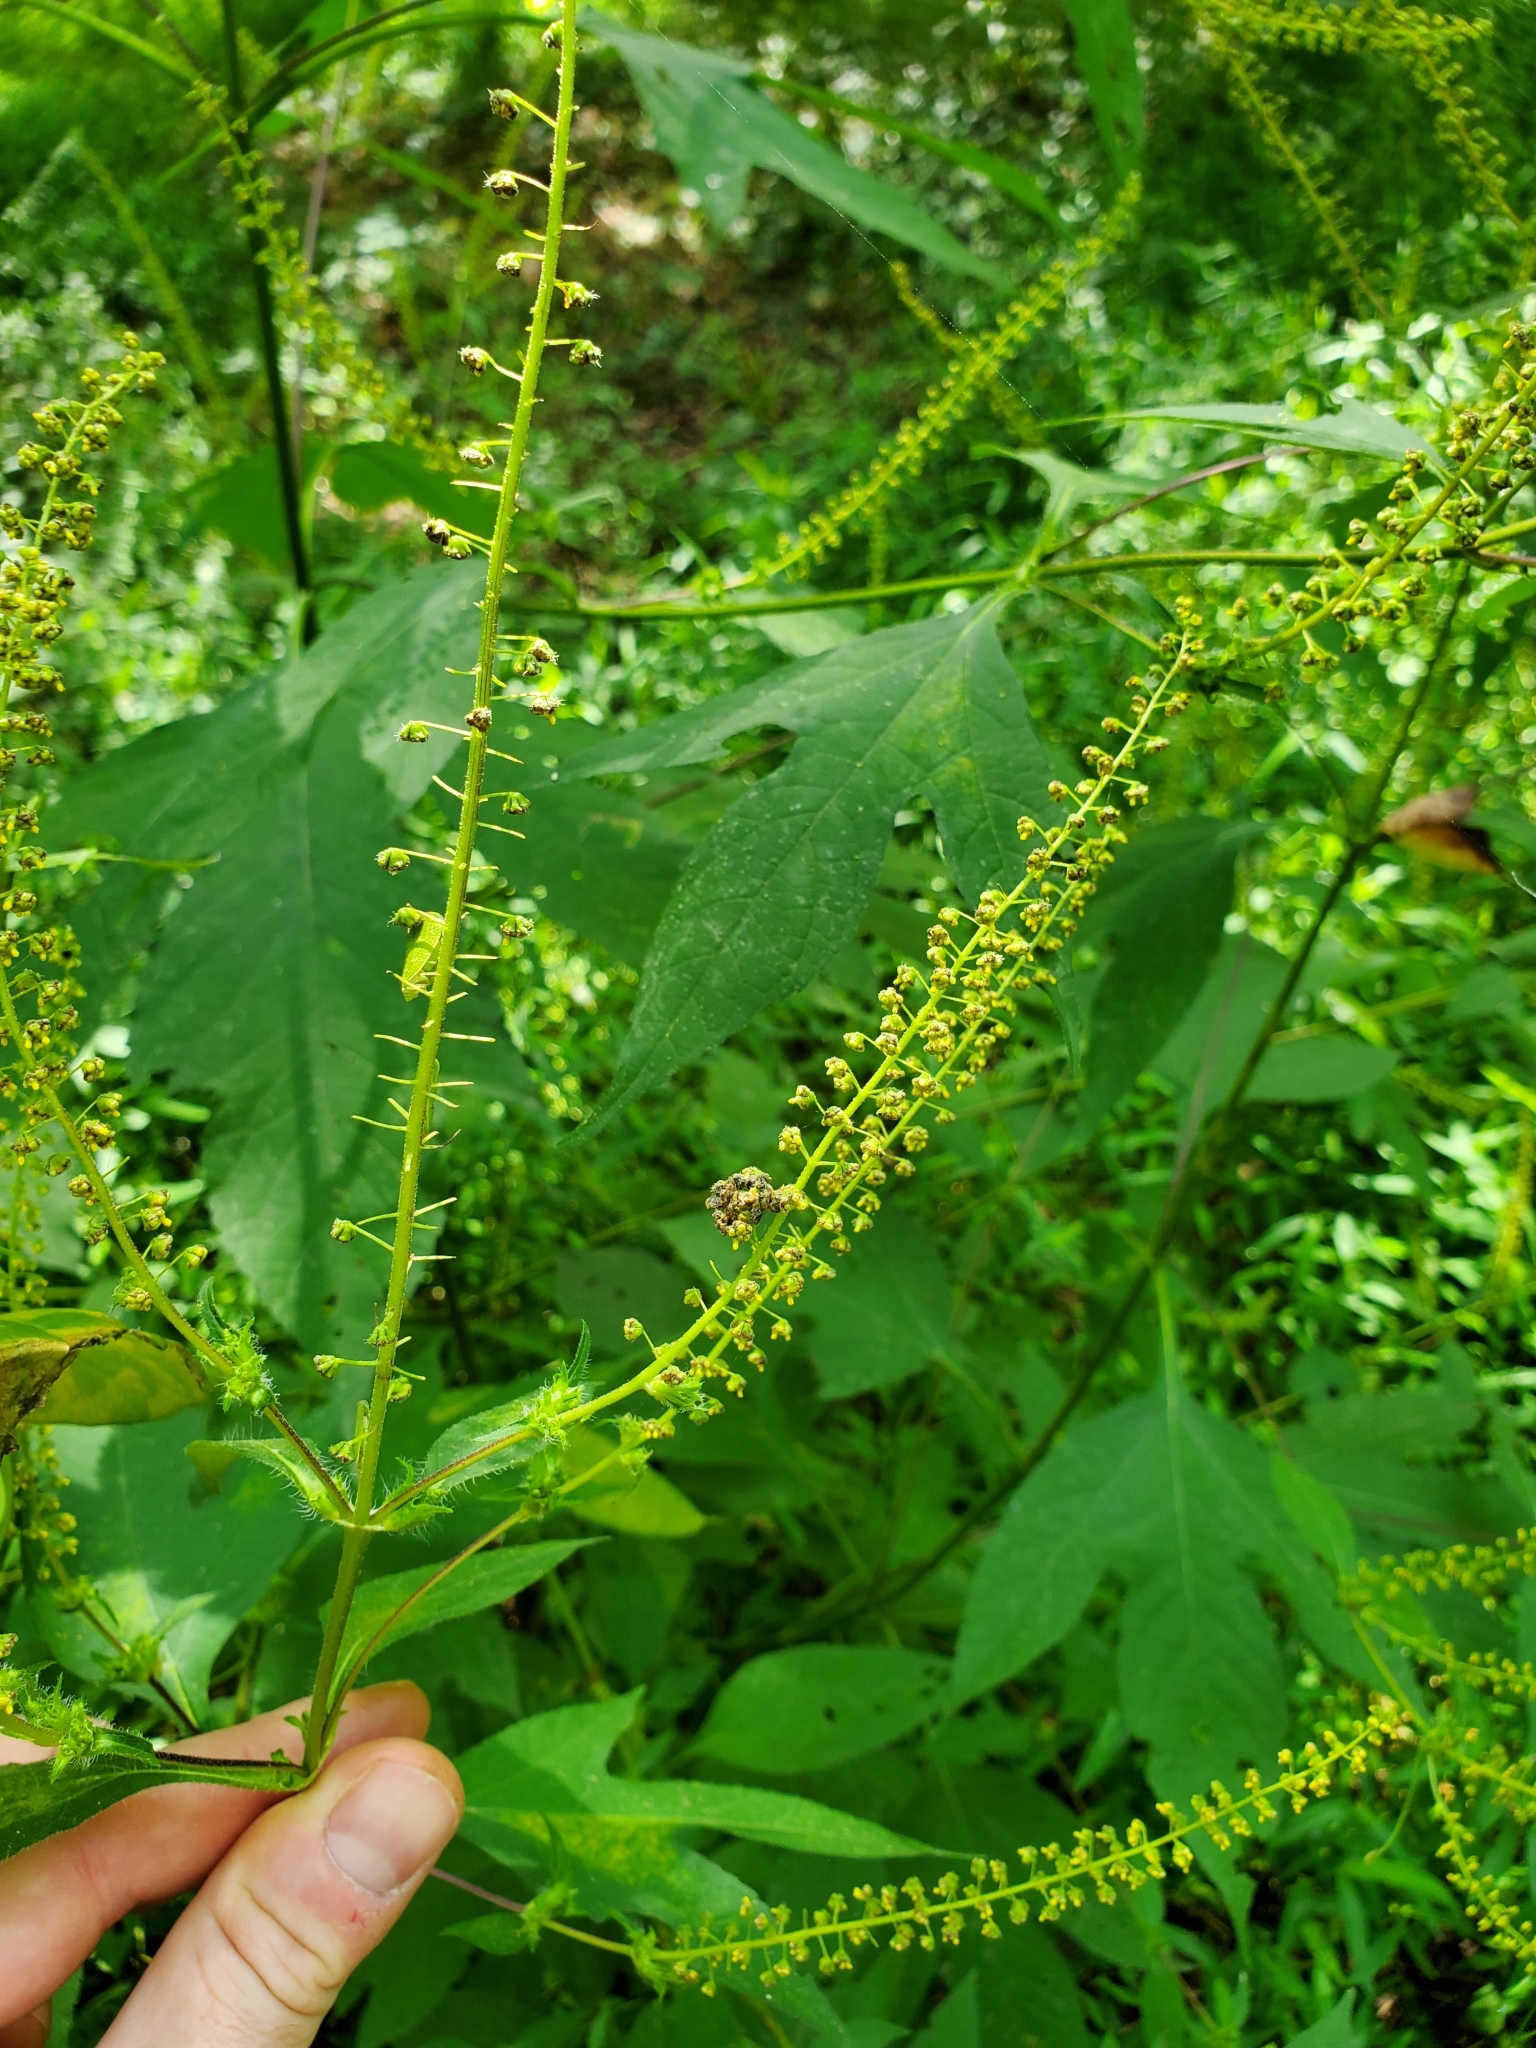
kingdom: Plantae
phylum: Tracheophyta
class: Magnoliopsida
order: Asterales
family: Asteraceae
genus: Ambrosia
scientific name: Ambrosia trifida
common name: Giant ragweed
